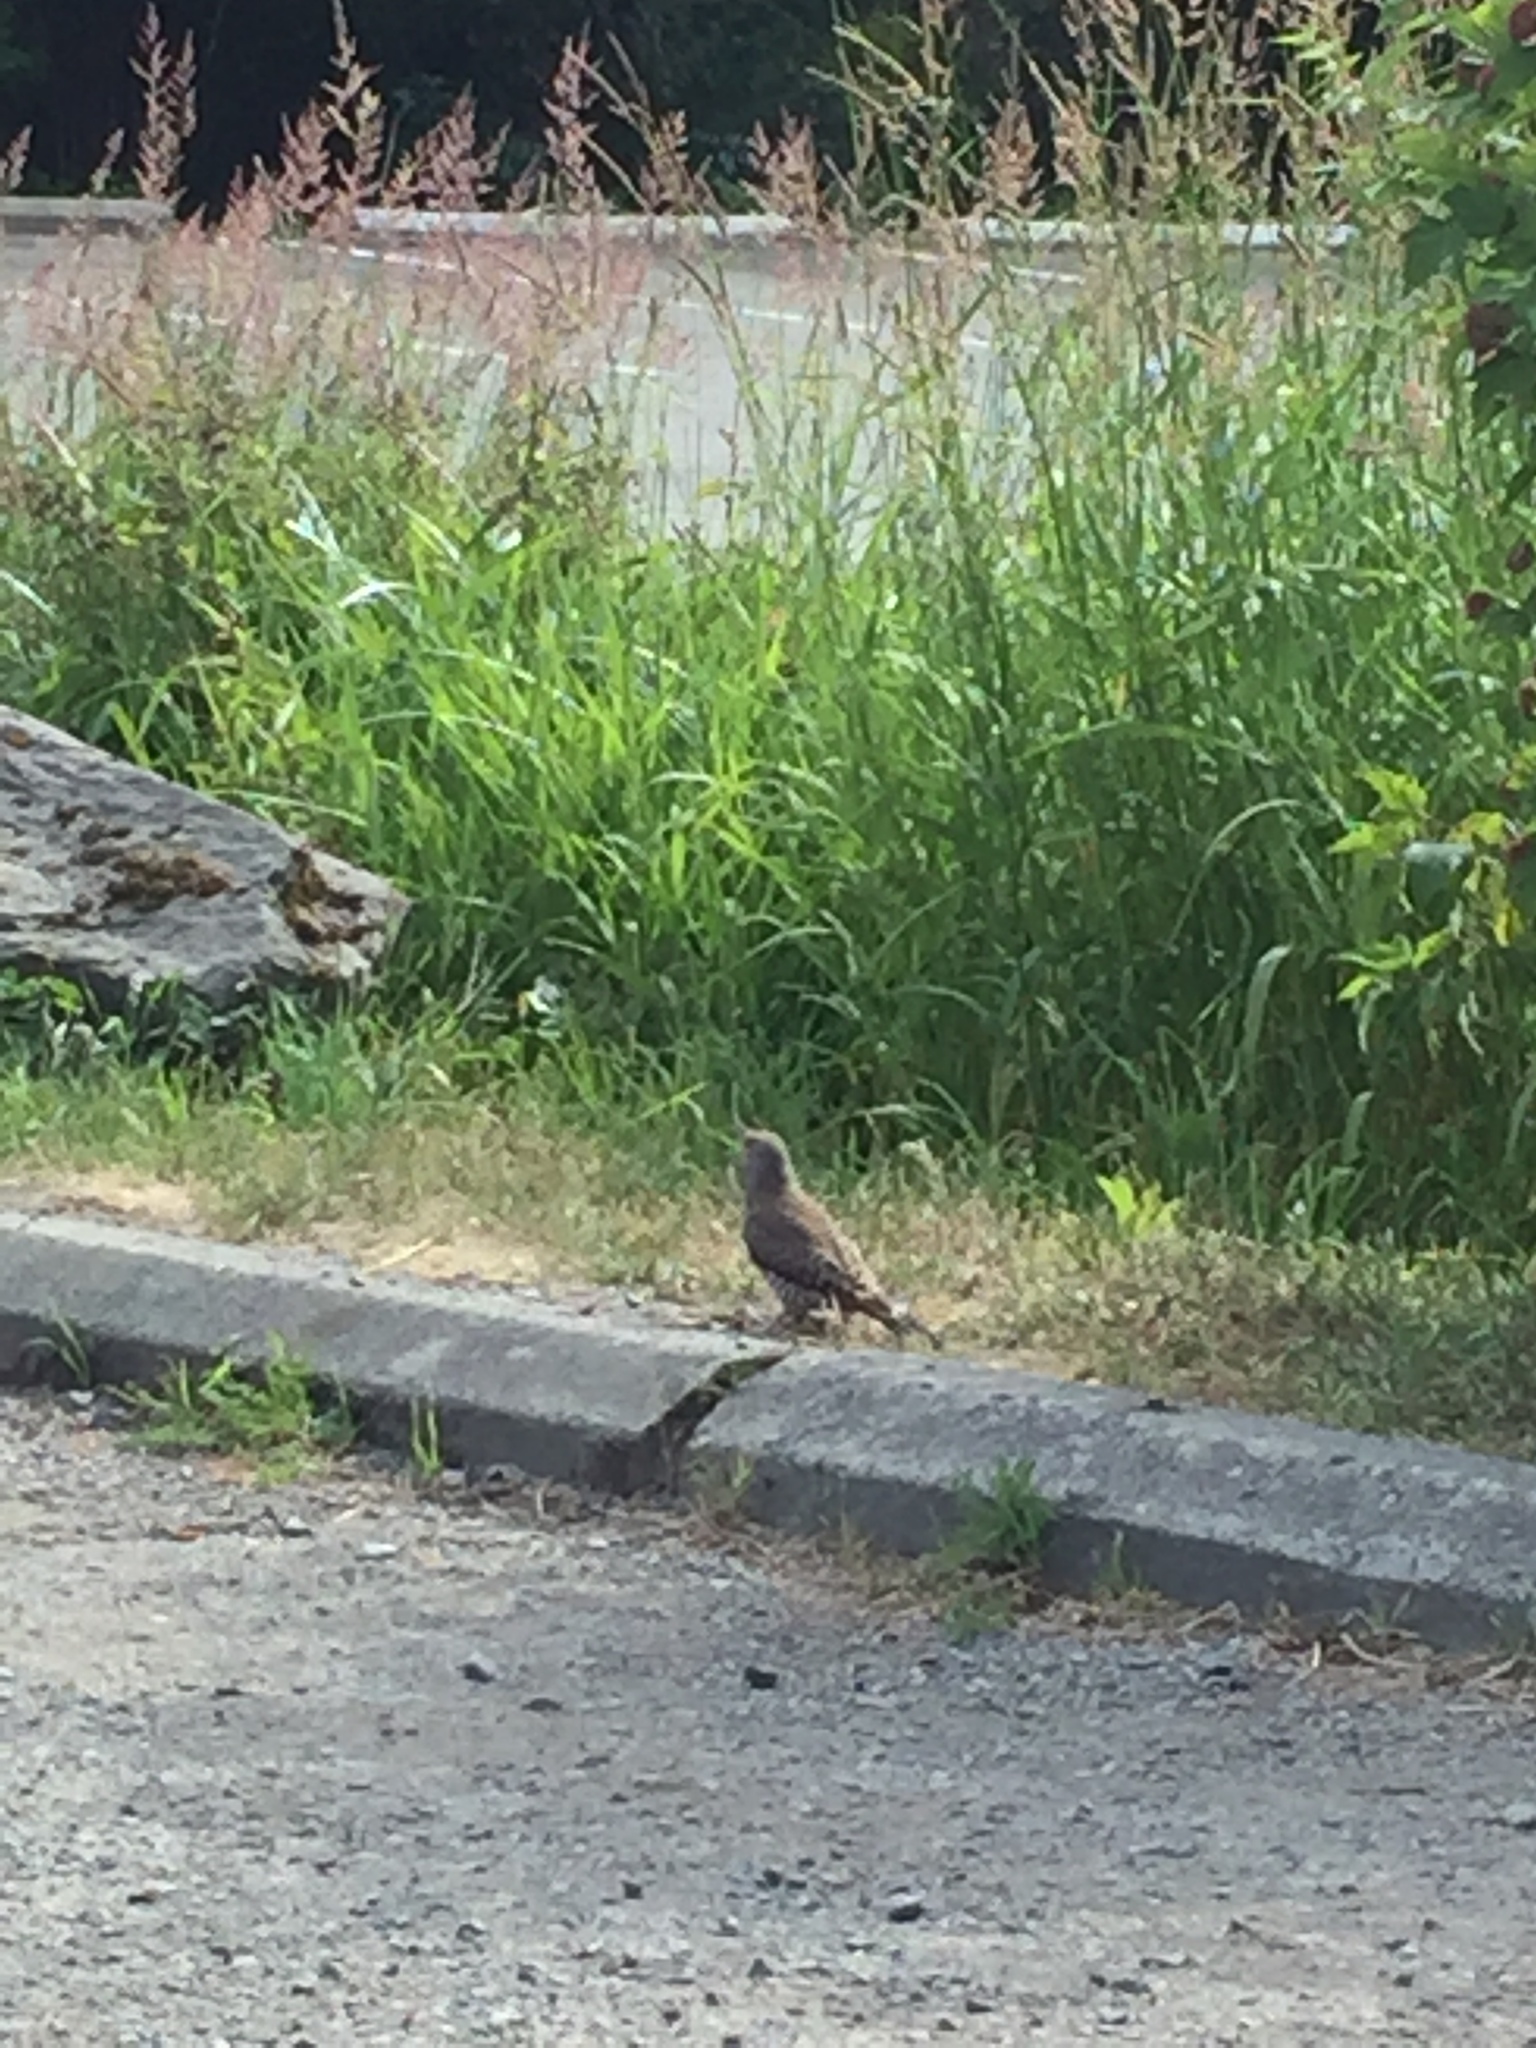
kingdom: Animalia
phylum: Chordata
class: Aves
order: Piciformes
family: Picidae
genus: Colaptes
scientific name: Colaptes auratus
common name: Northern flicker
